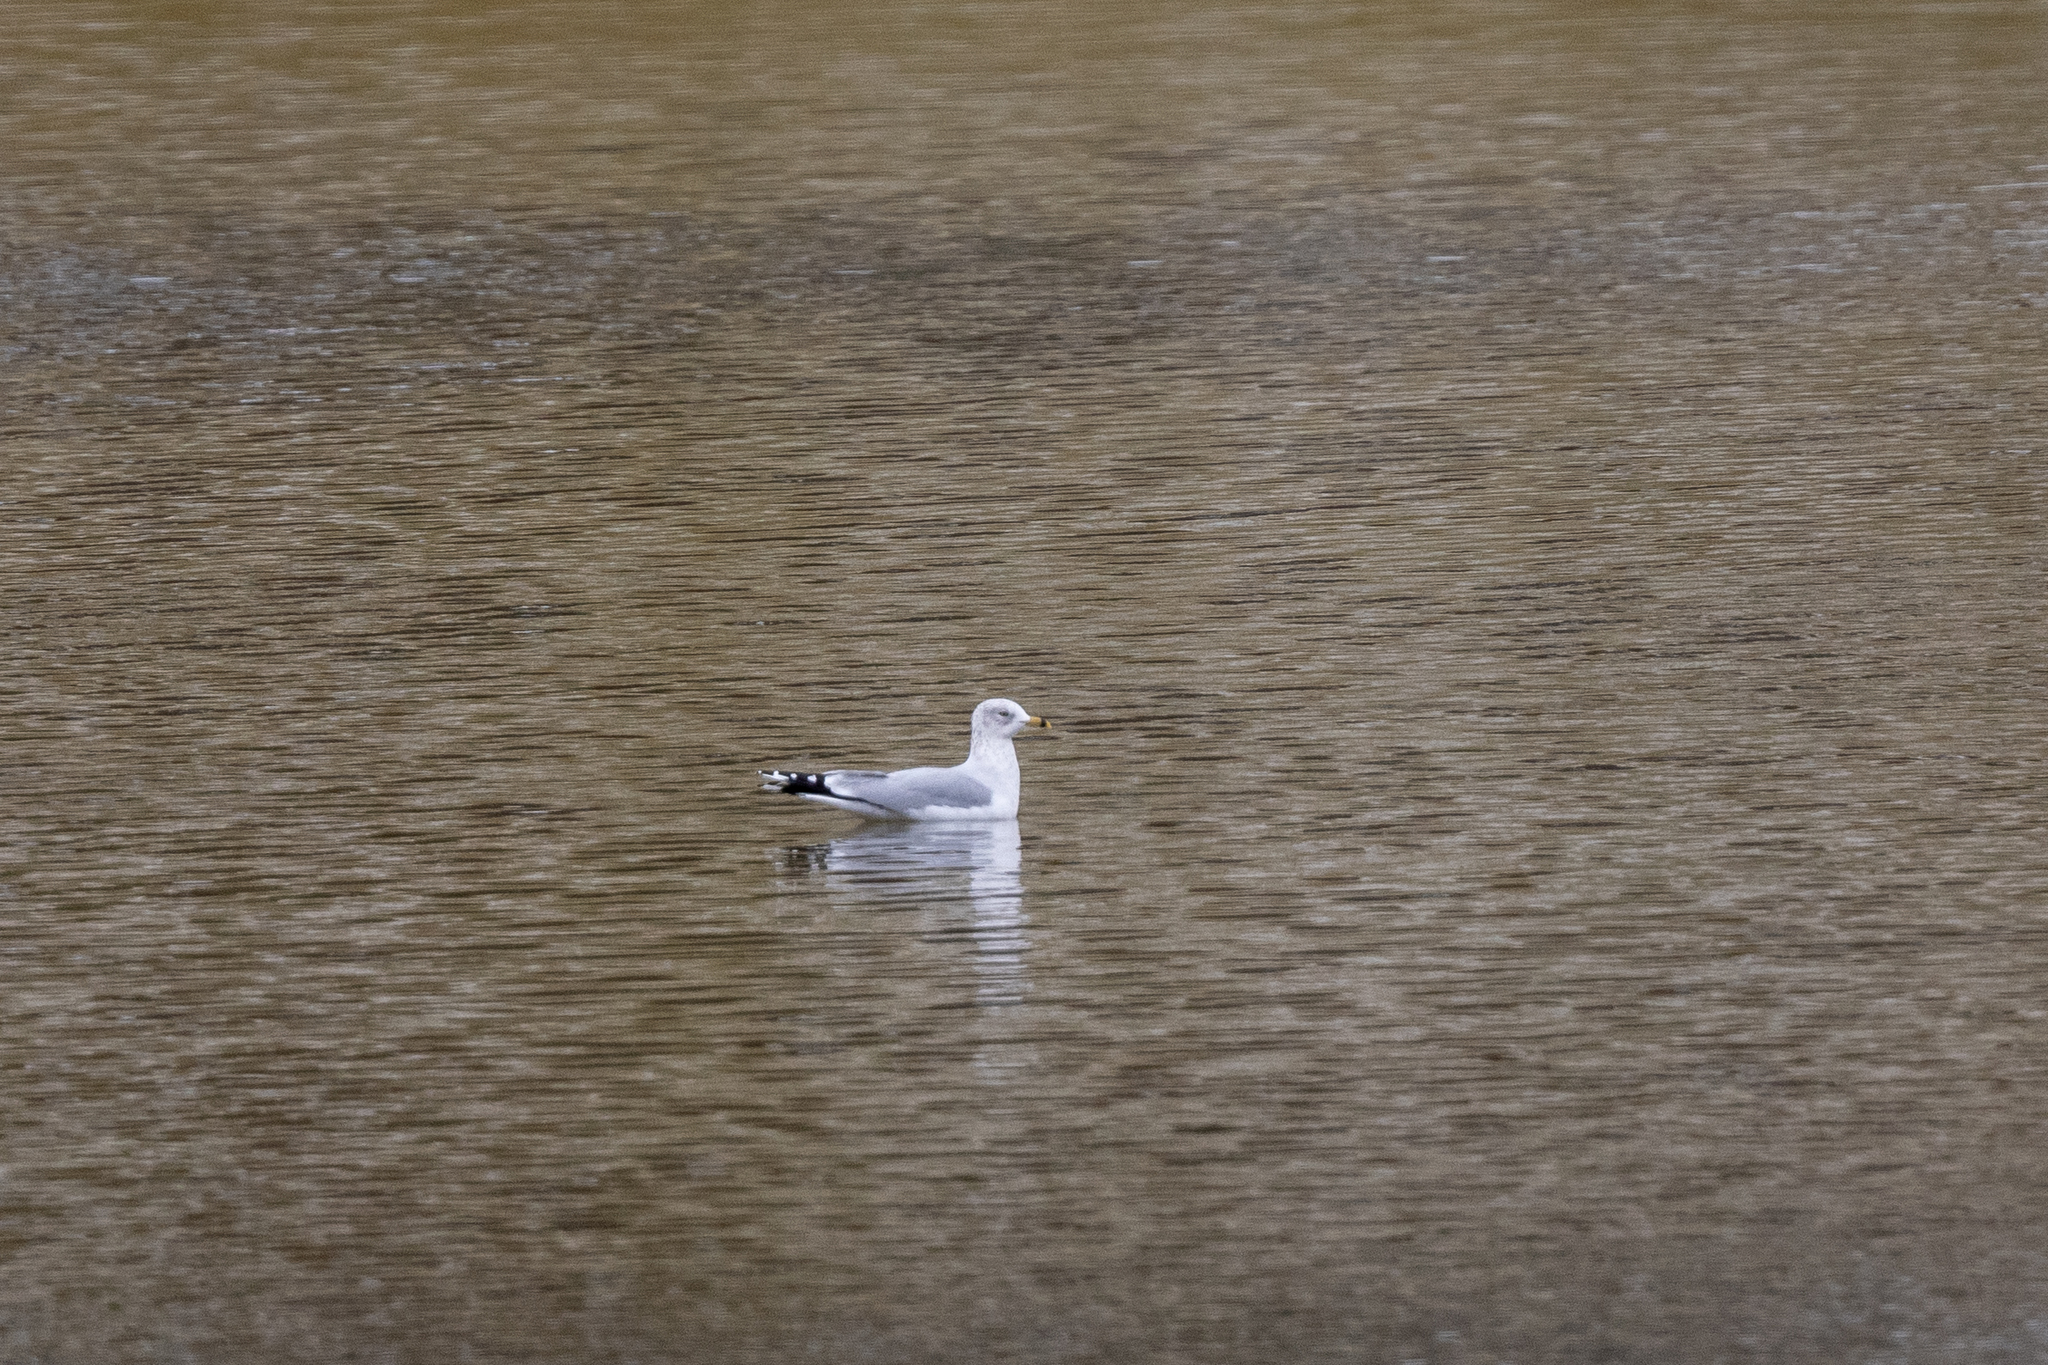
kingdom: Animalia
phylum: Chordata
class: Aves
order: Charadriiformes
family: Laridae
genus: Larus
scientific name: Larus delawarensis
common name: Ring-billed gull
